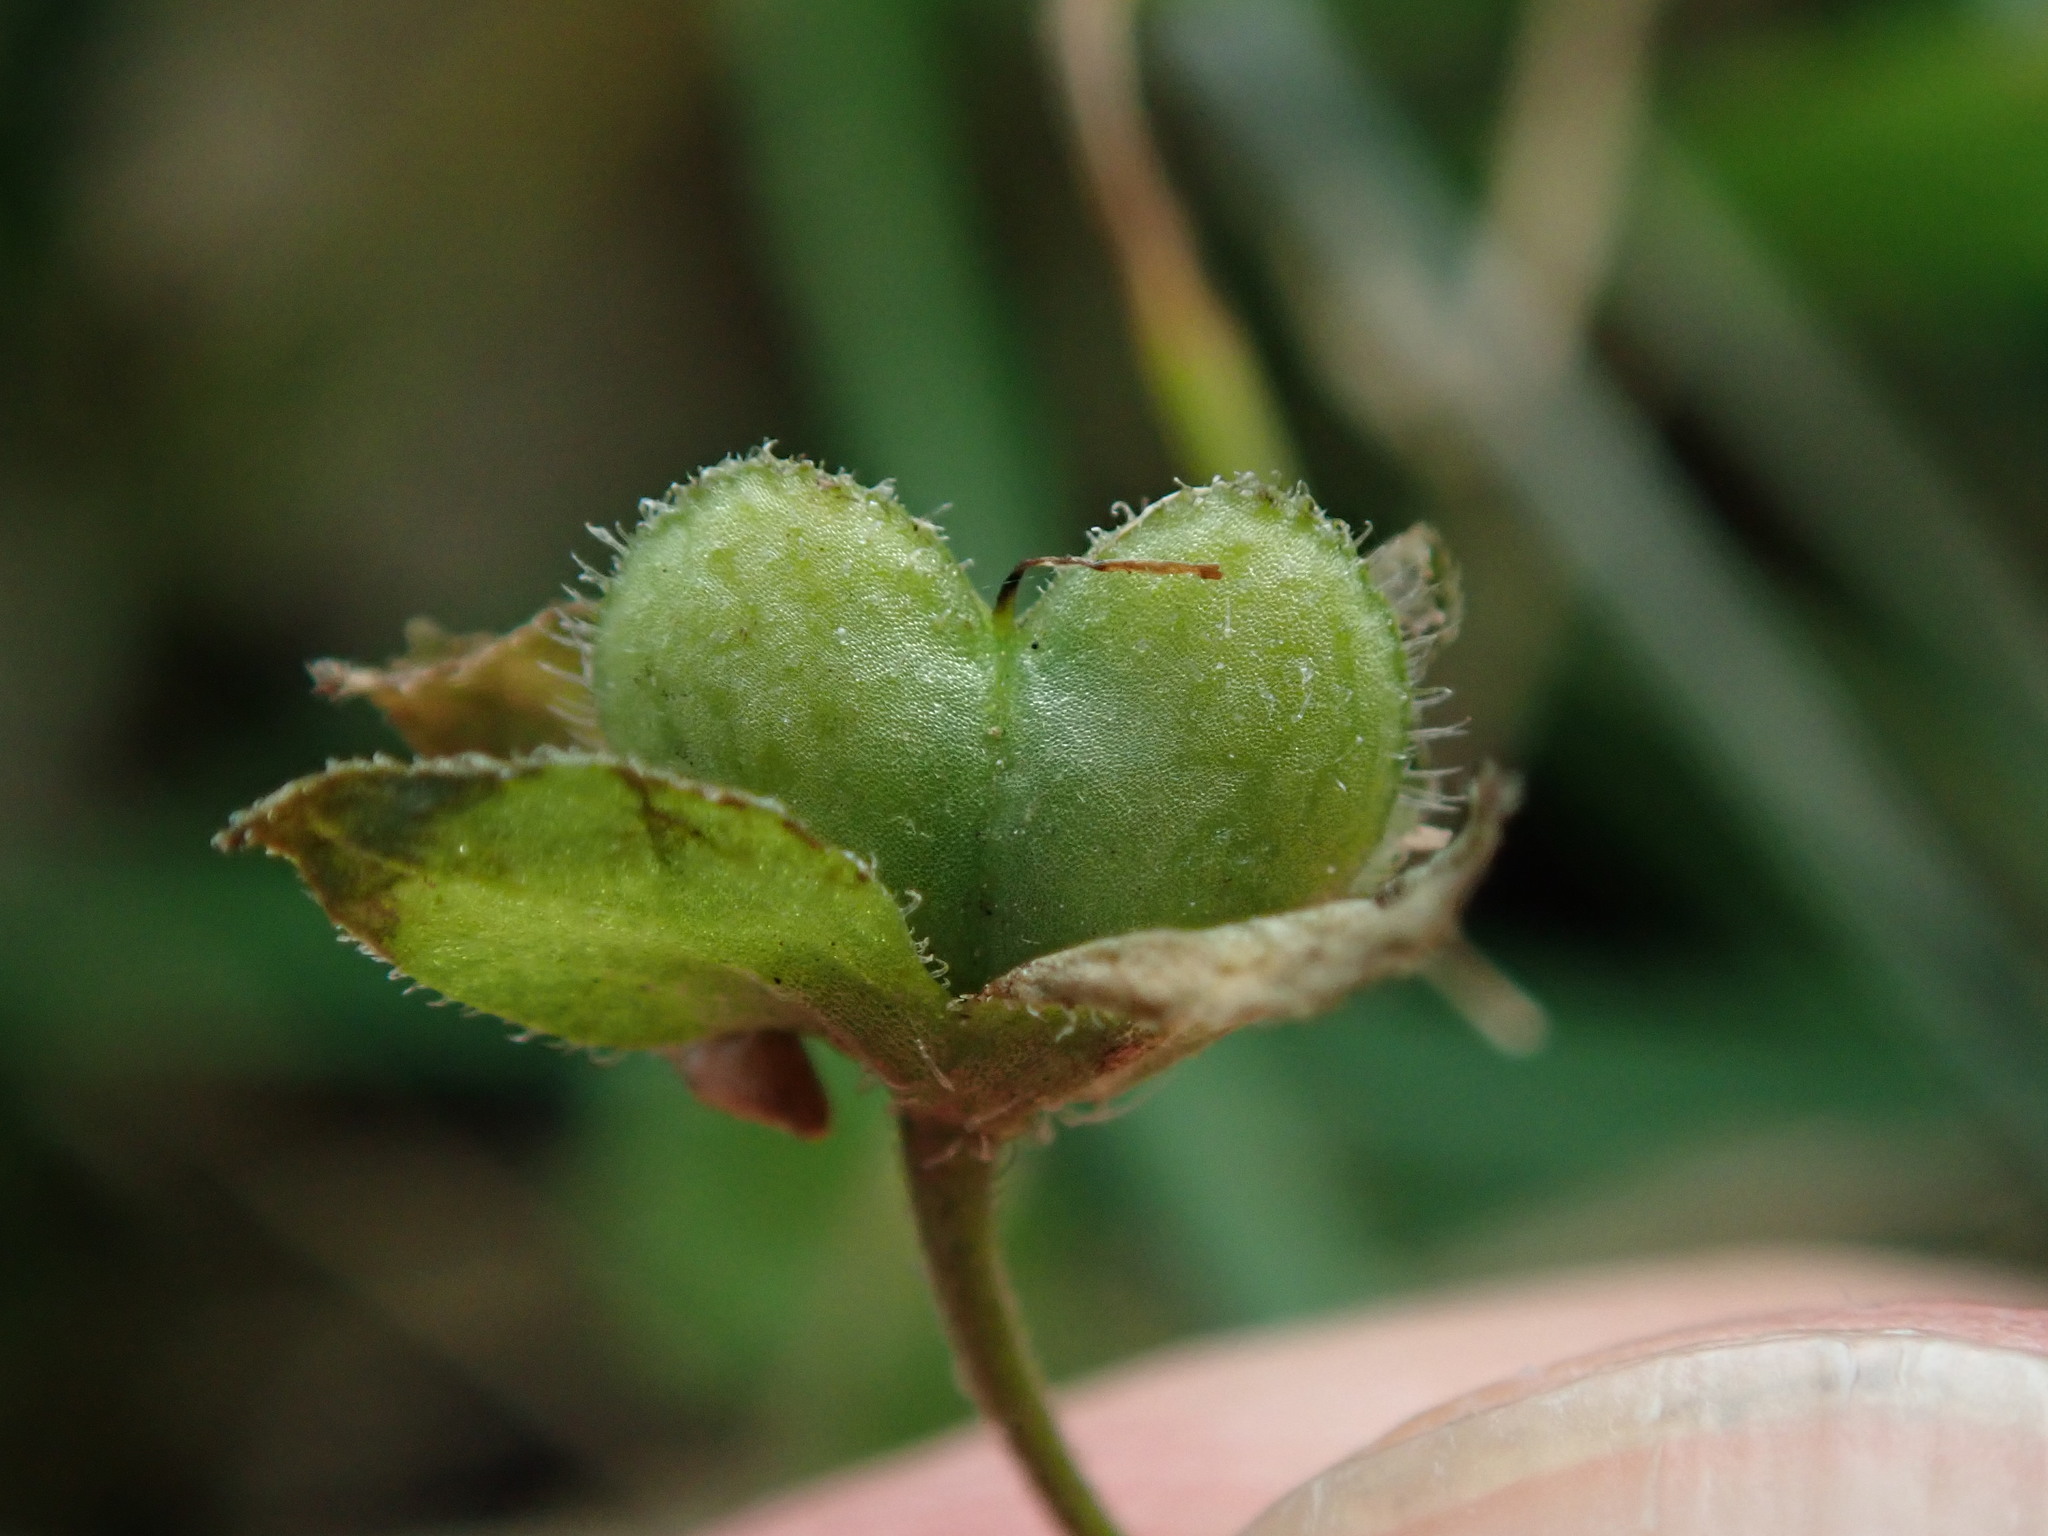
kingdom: Plantae
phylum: Tracheophyta
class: Magnoliopsida
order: Lamiales
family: Plantaginaceae
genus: Veronica
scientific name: Veronica persica
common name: Common field-speedwell
